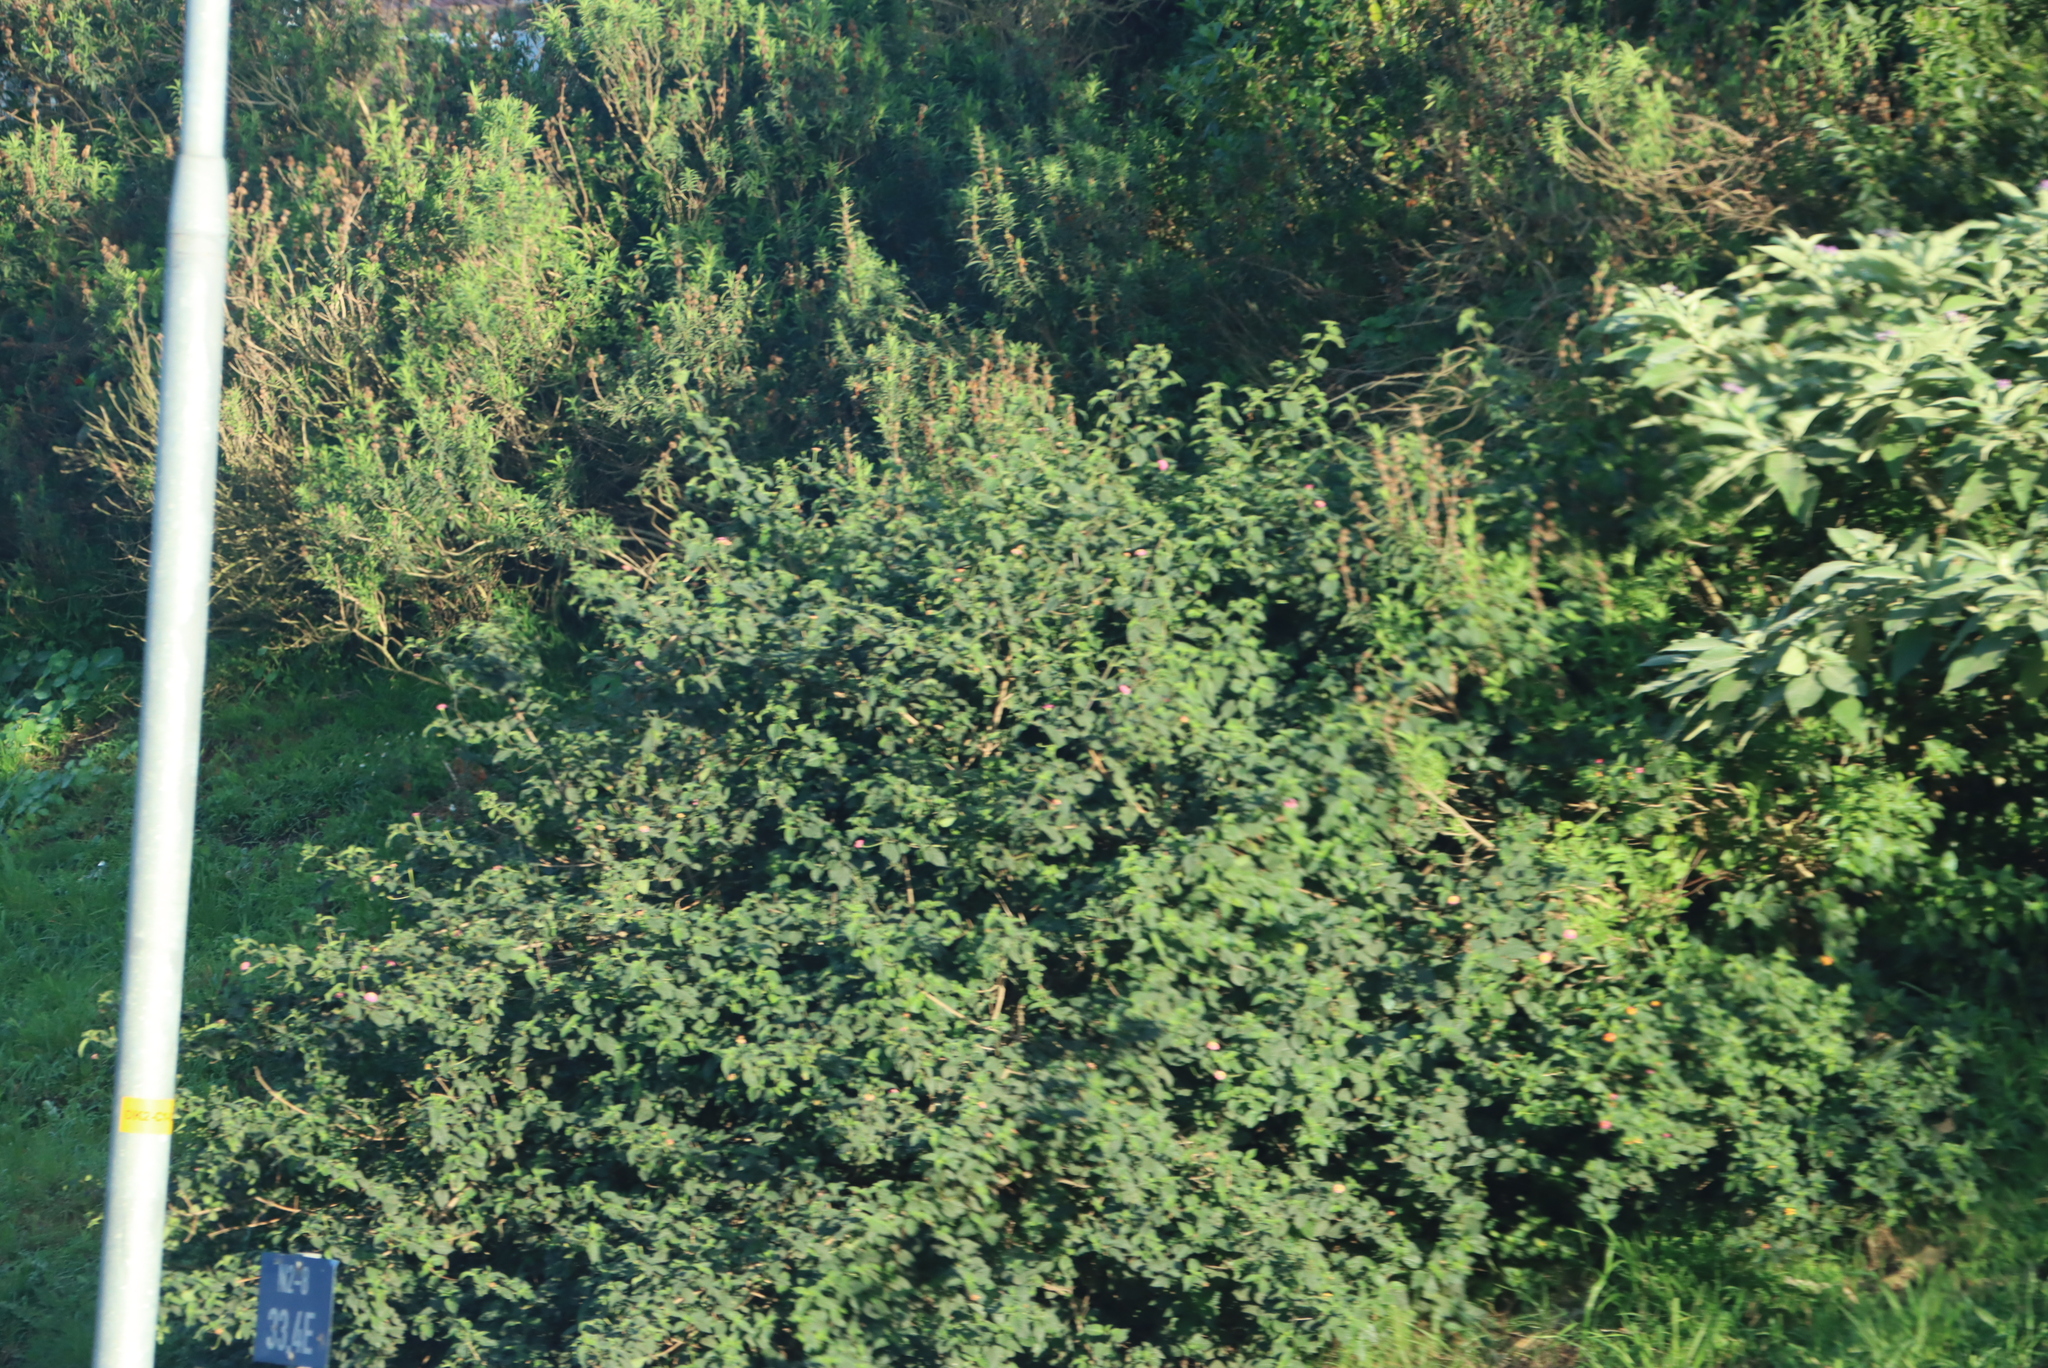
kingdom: Plantae
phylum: Tracheophyta
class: Magnoliopsida
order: Lamiales
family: Verbenaceae
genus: Lantana
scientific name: Lantana camara
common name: Lantana
